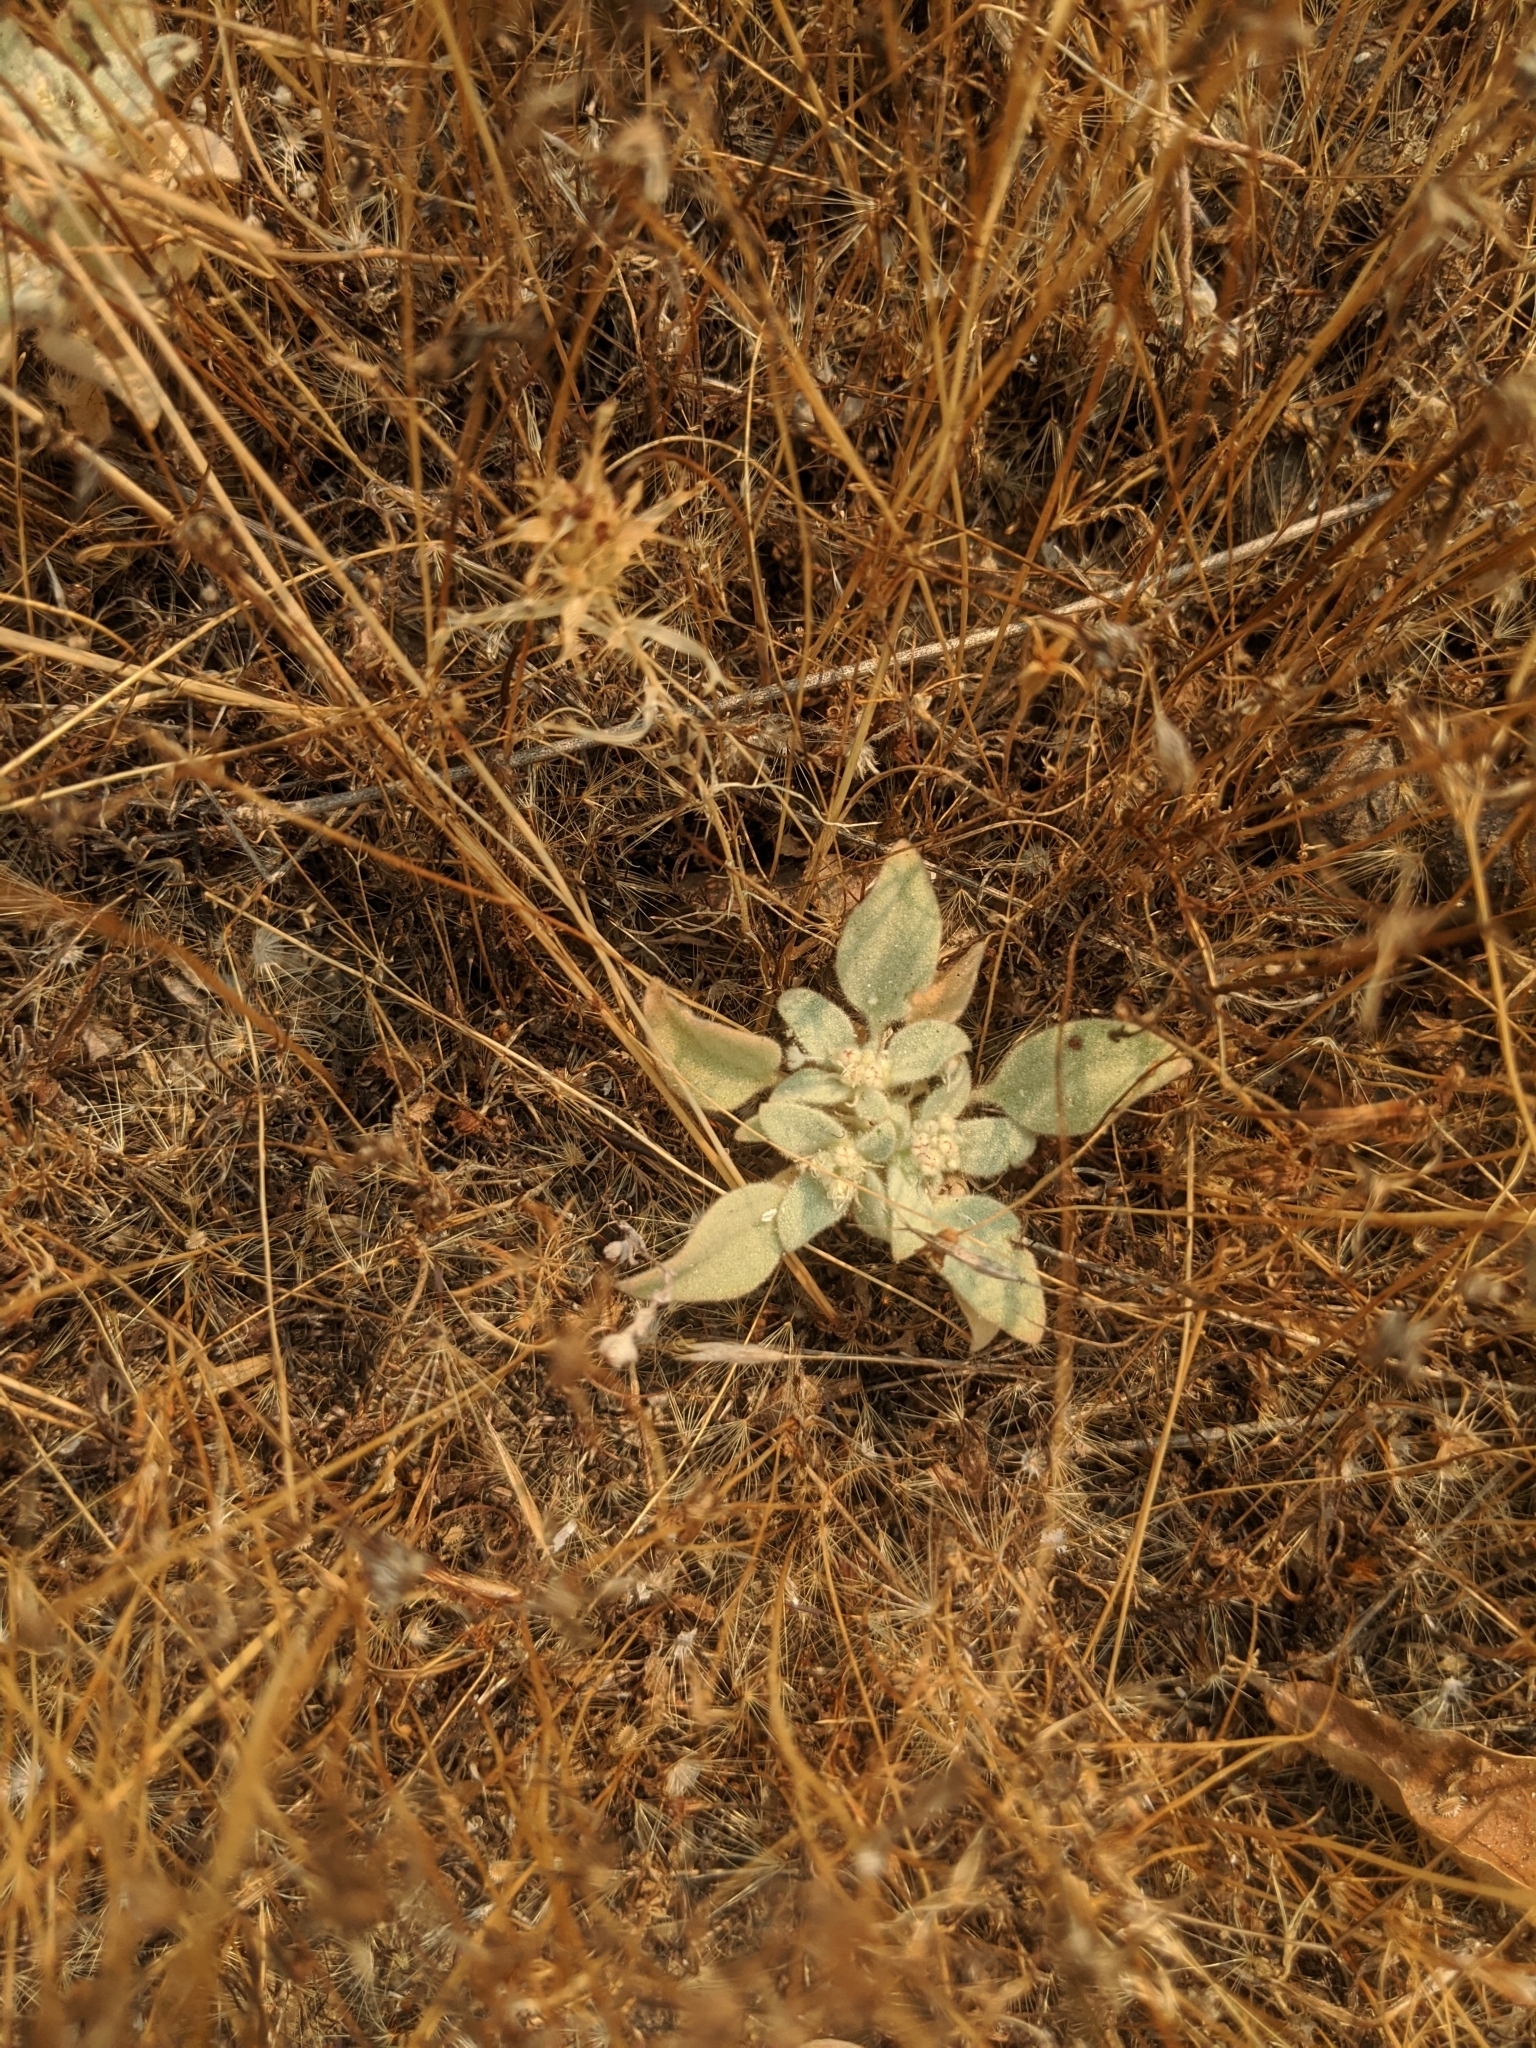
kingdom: Plantae
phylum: Tracheophyta
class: Magnoliopsida
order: Malpighiales
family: Euphorbiaceae
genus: Croton
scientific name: Croton setiger
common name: Dove weed
